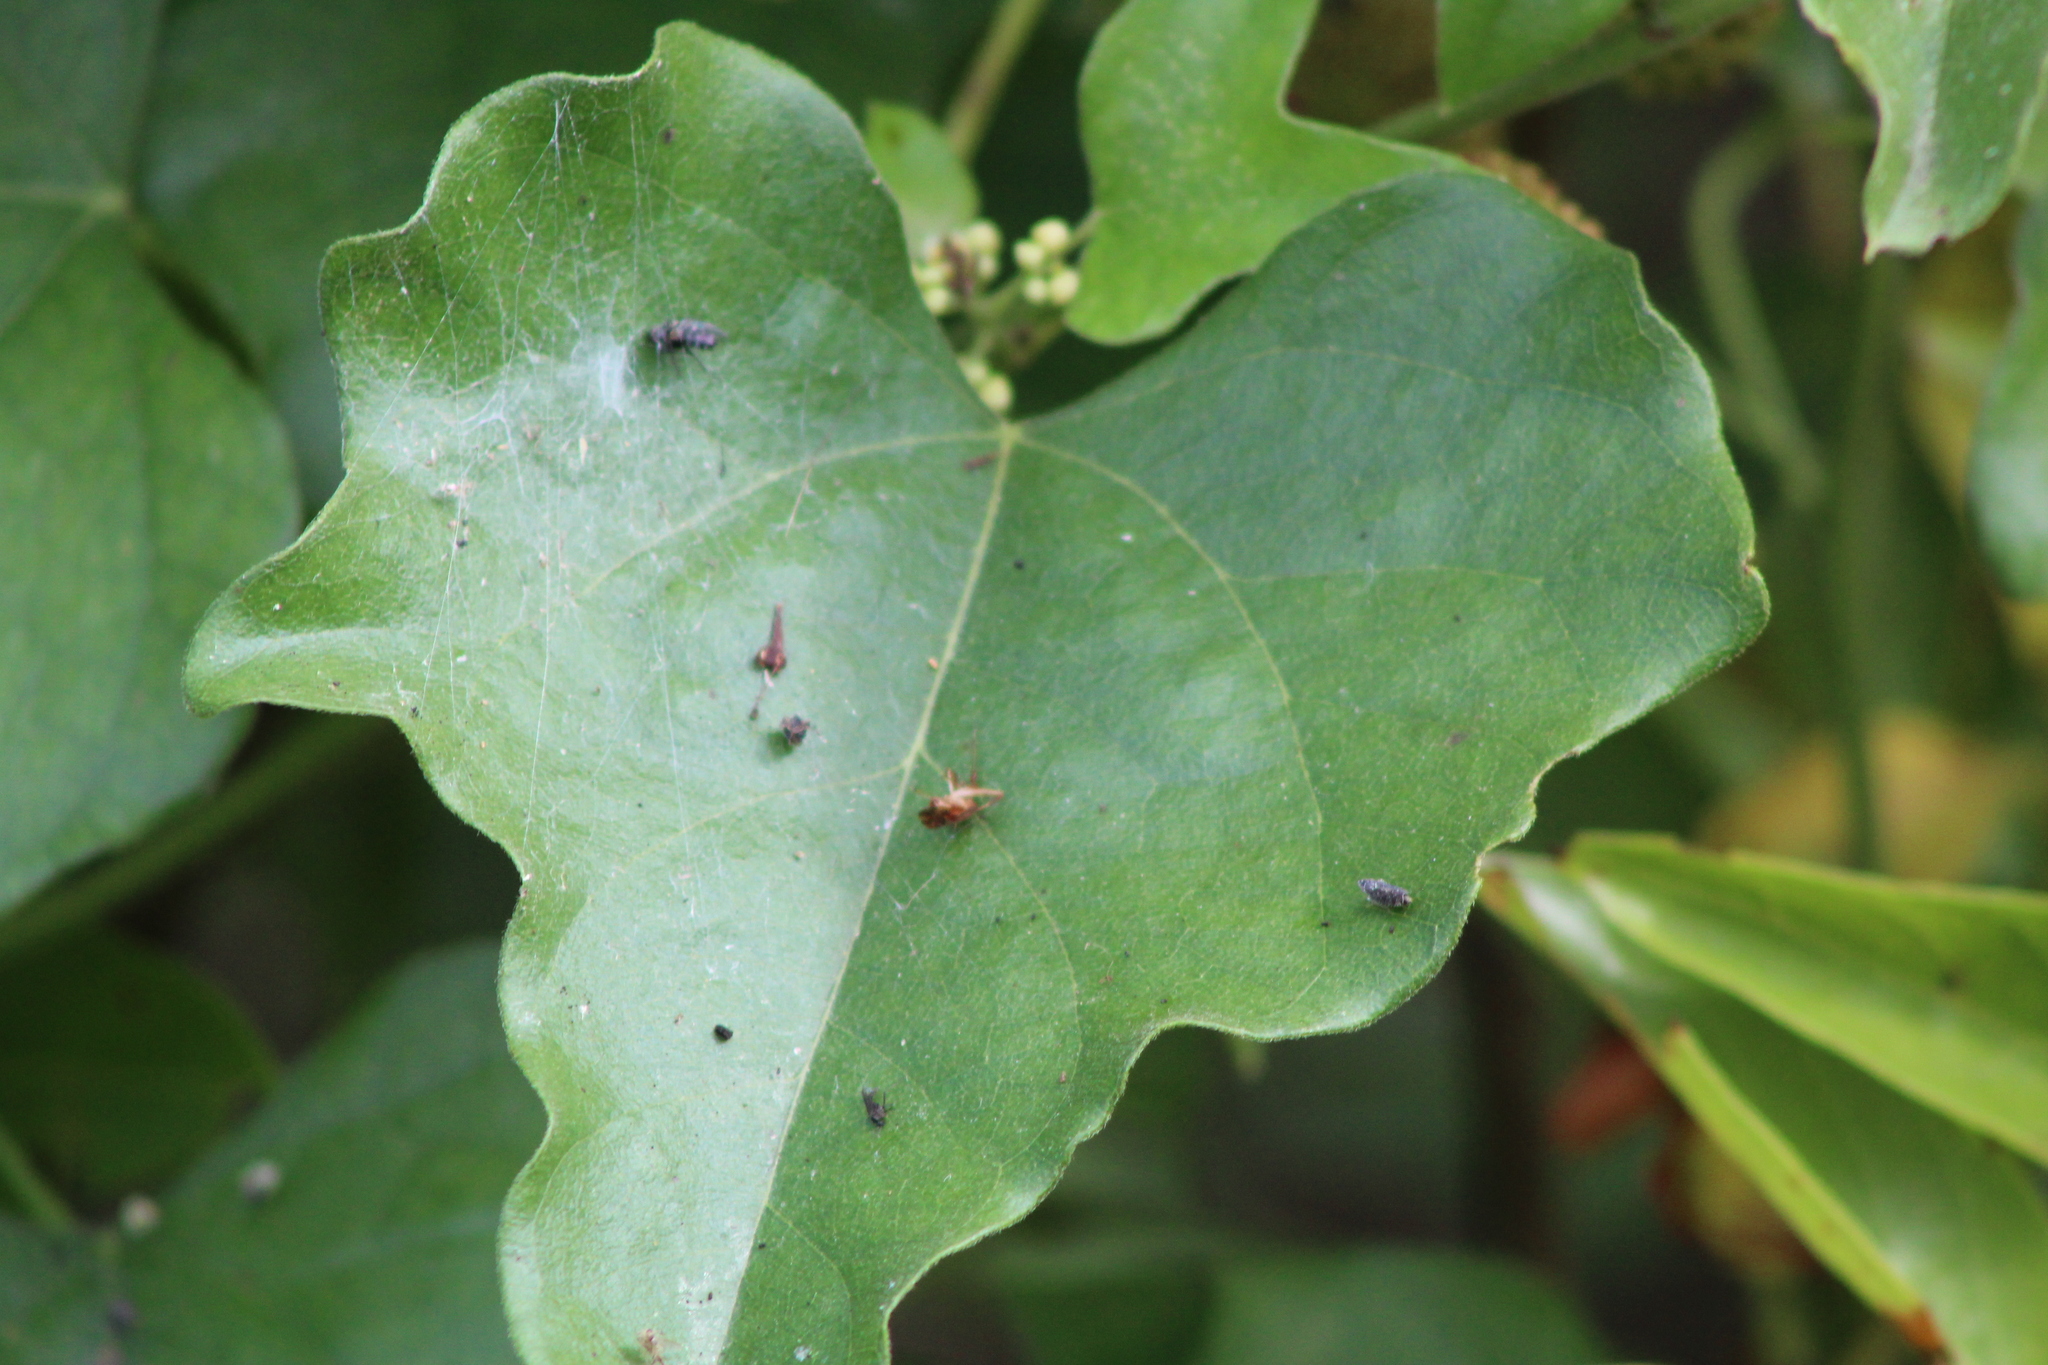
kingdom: Plantae
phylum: Tracheophyta
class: Magnoliopsida
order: Ranunculales
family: Menispermaceae
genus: Cocculus
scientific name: Cocculus carolinus
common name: Carolina moonseed
